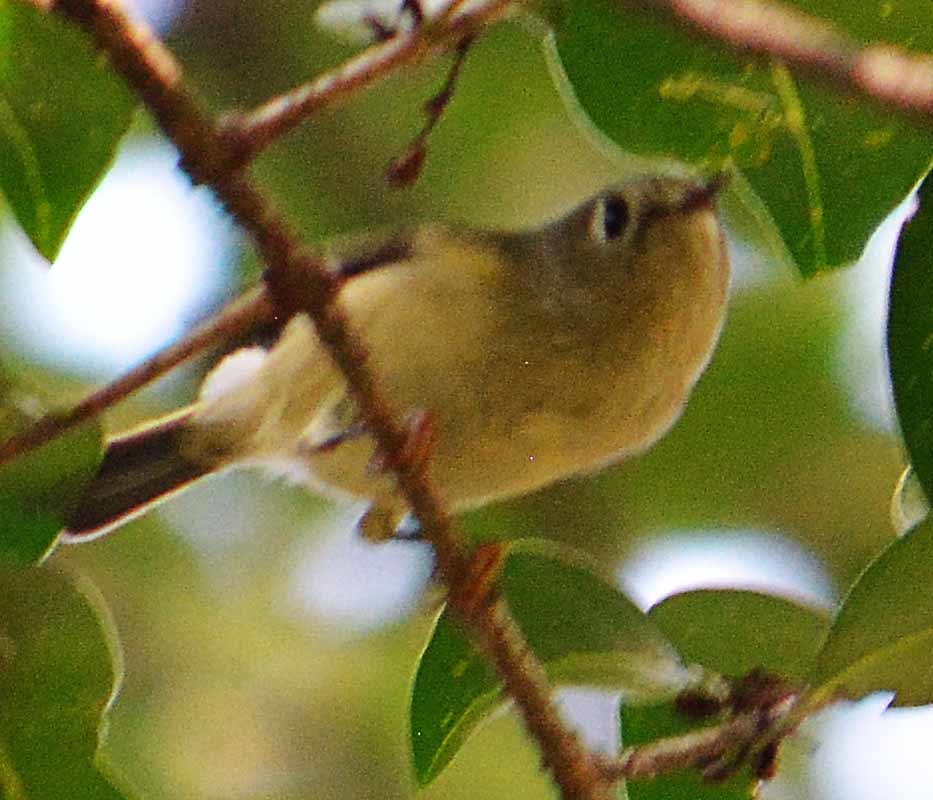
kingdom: Animalia
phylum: Chordata
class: Aves
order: Passeriformes
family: Regulidae
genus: Regulus
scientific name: Regulus calendula
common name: Ruby-crowned kinglet
